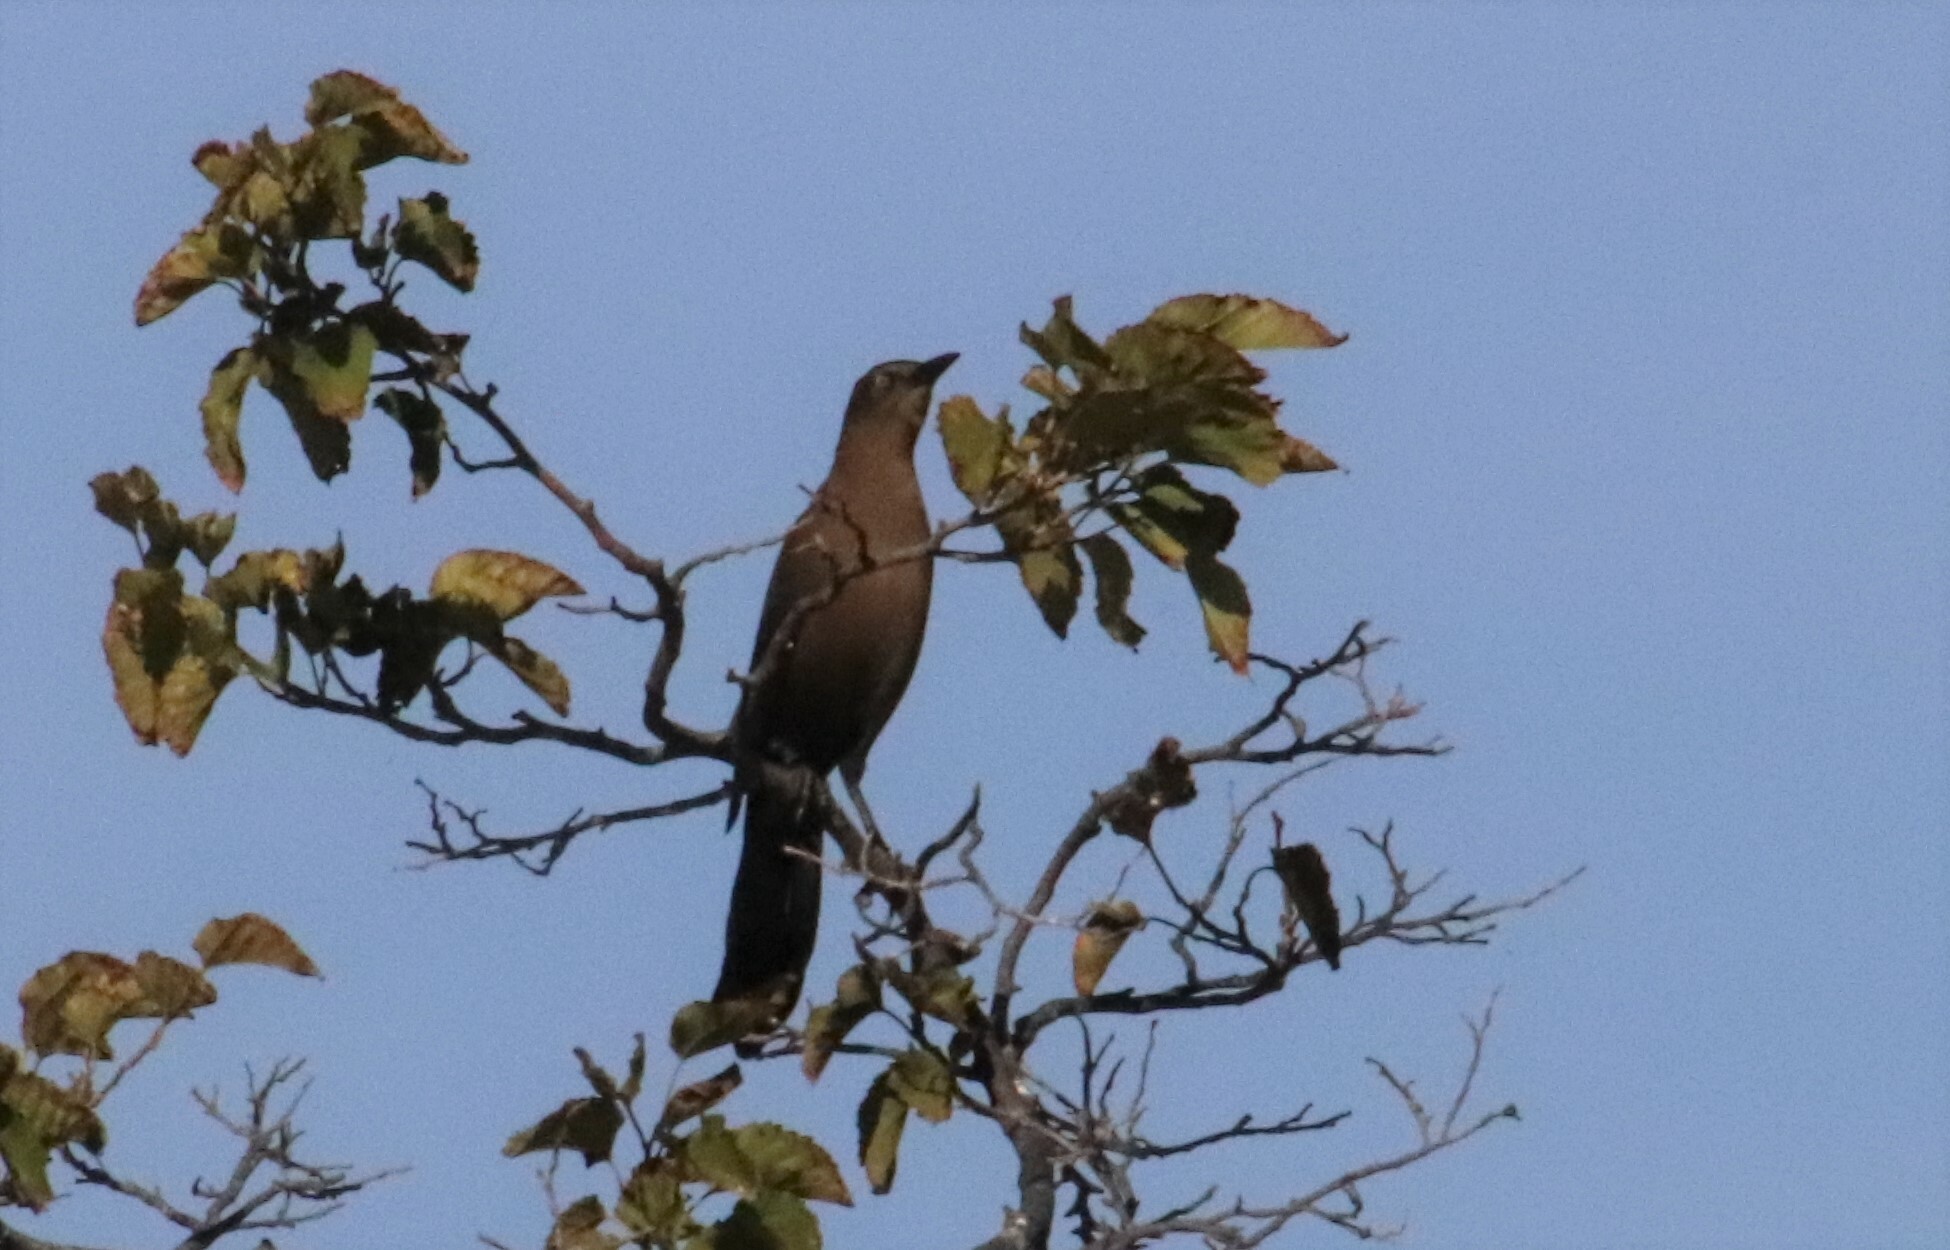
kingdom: Animalia
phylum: Chordata
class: Aves
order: Passeriformes
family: Icteridae
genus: Quiscalus
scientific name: Quiscalus mexicanus
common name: Great-tailed grackle
